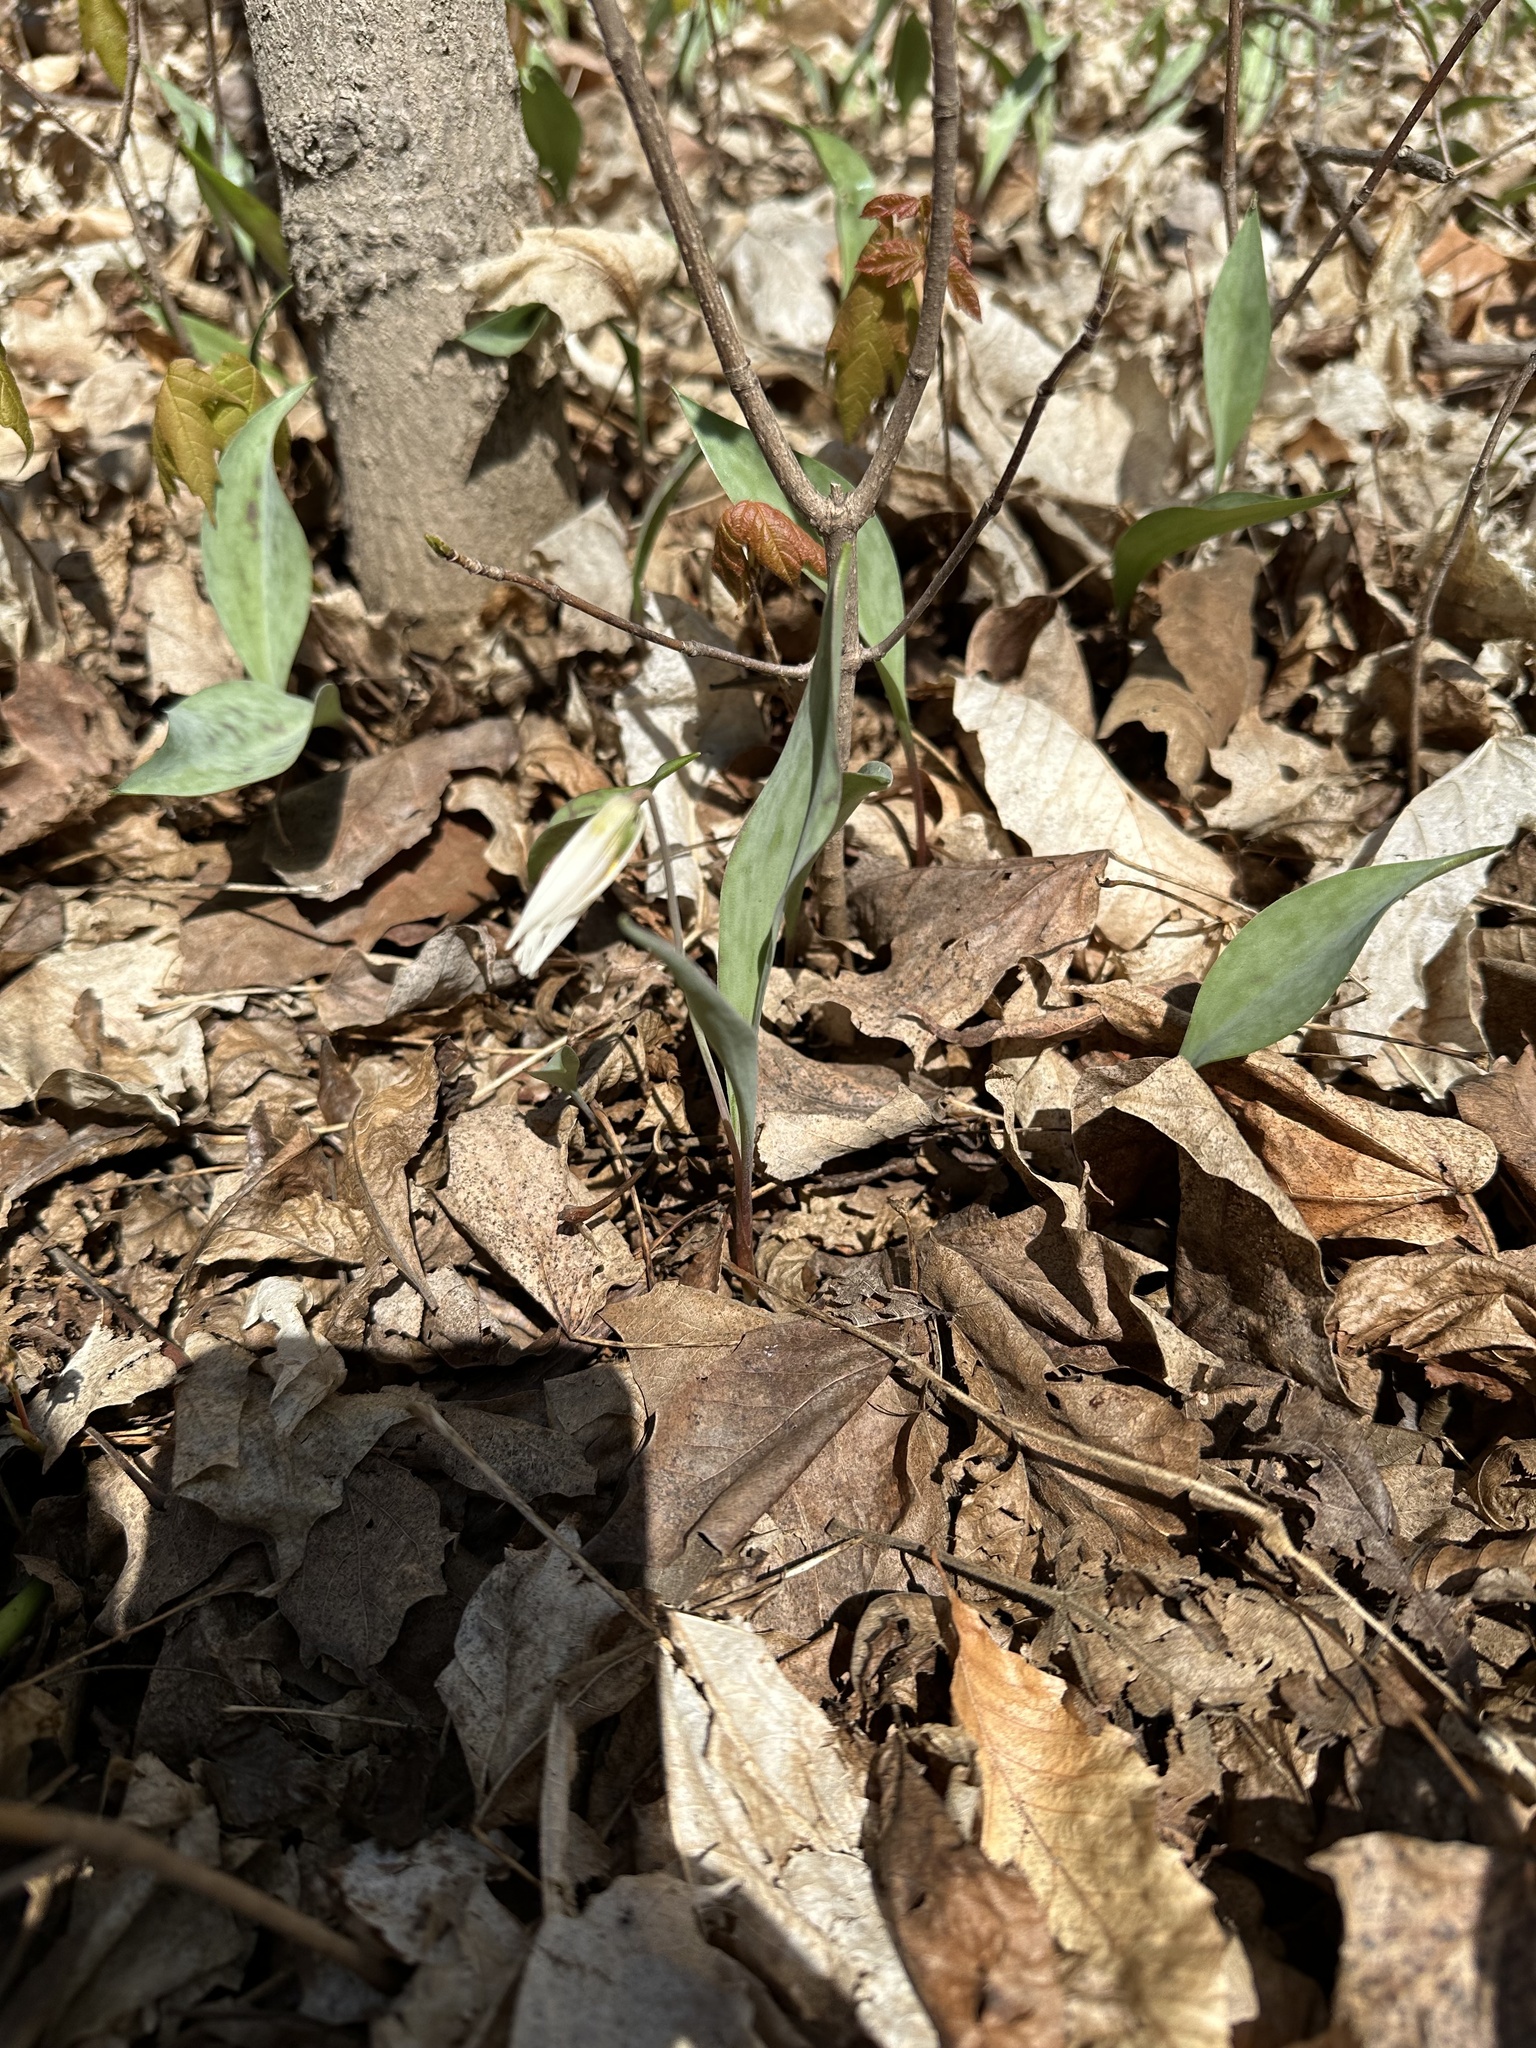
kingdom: Plantae
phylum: Tracheophyta
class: Liliopsida
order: Liliales
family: Liliaceae
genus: Erythronium
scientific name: Erythronium albidum
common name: White trout-lily
